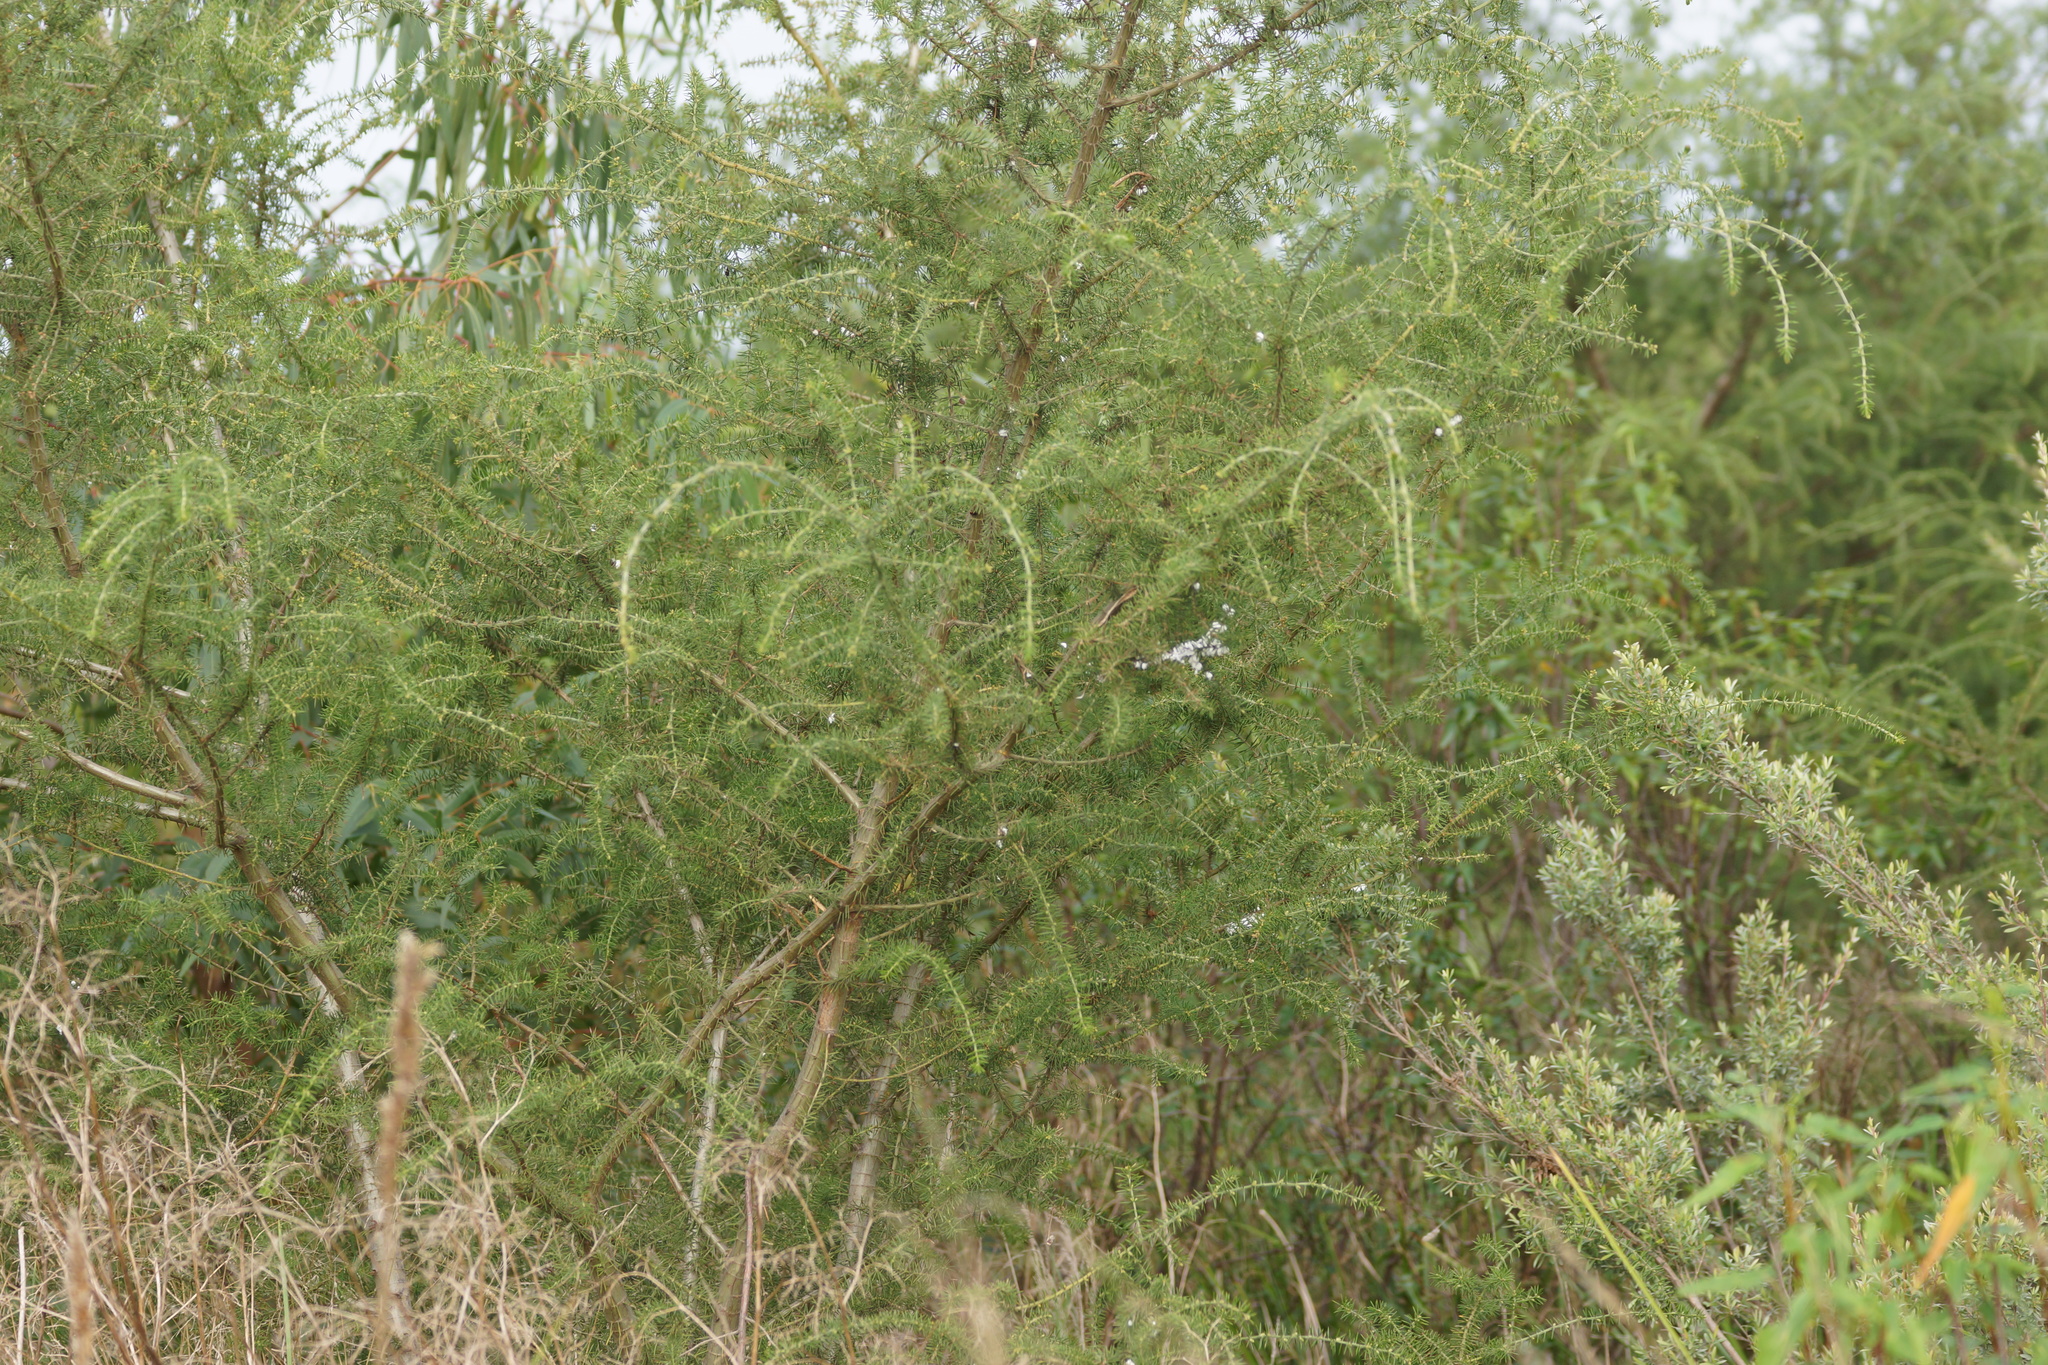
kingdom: Plantae
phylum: Tracheophyta
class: Magnoliopsida
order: Fabales
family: Fabaceae
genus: Acacia
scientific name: Acacia verticillata
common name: Prickly moses
